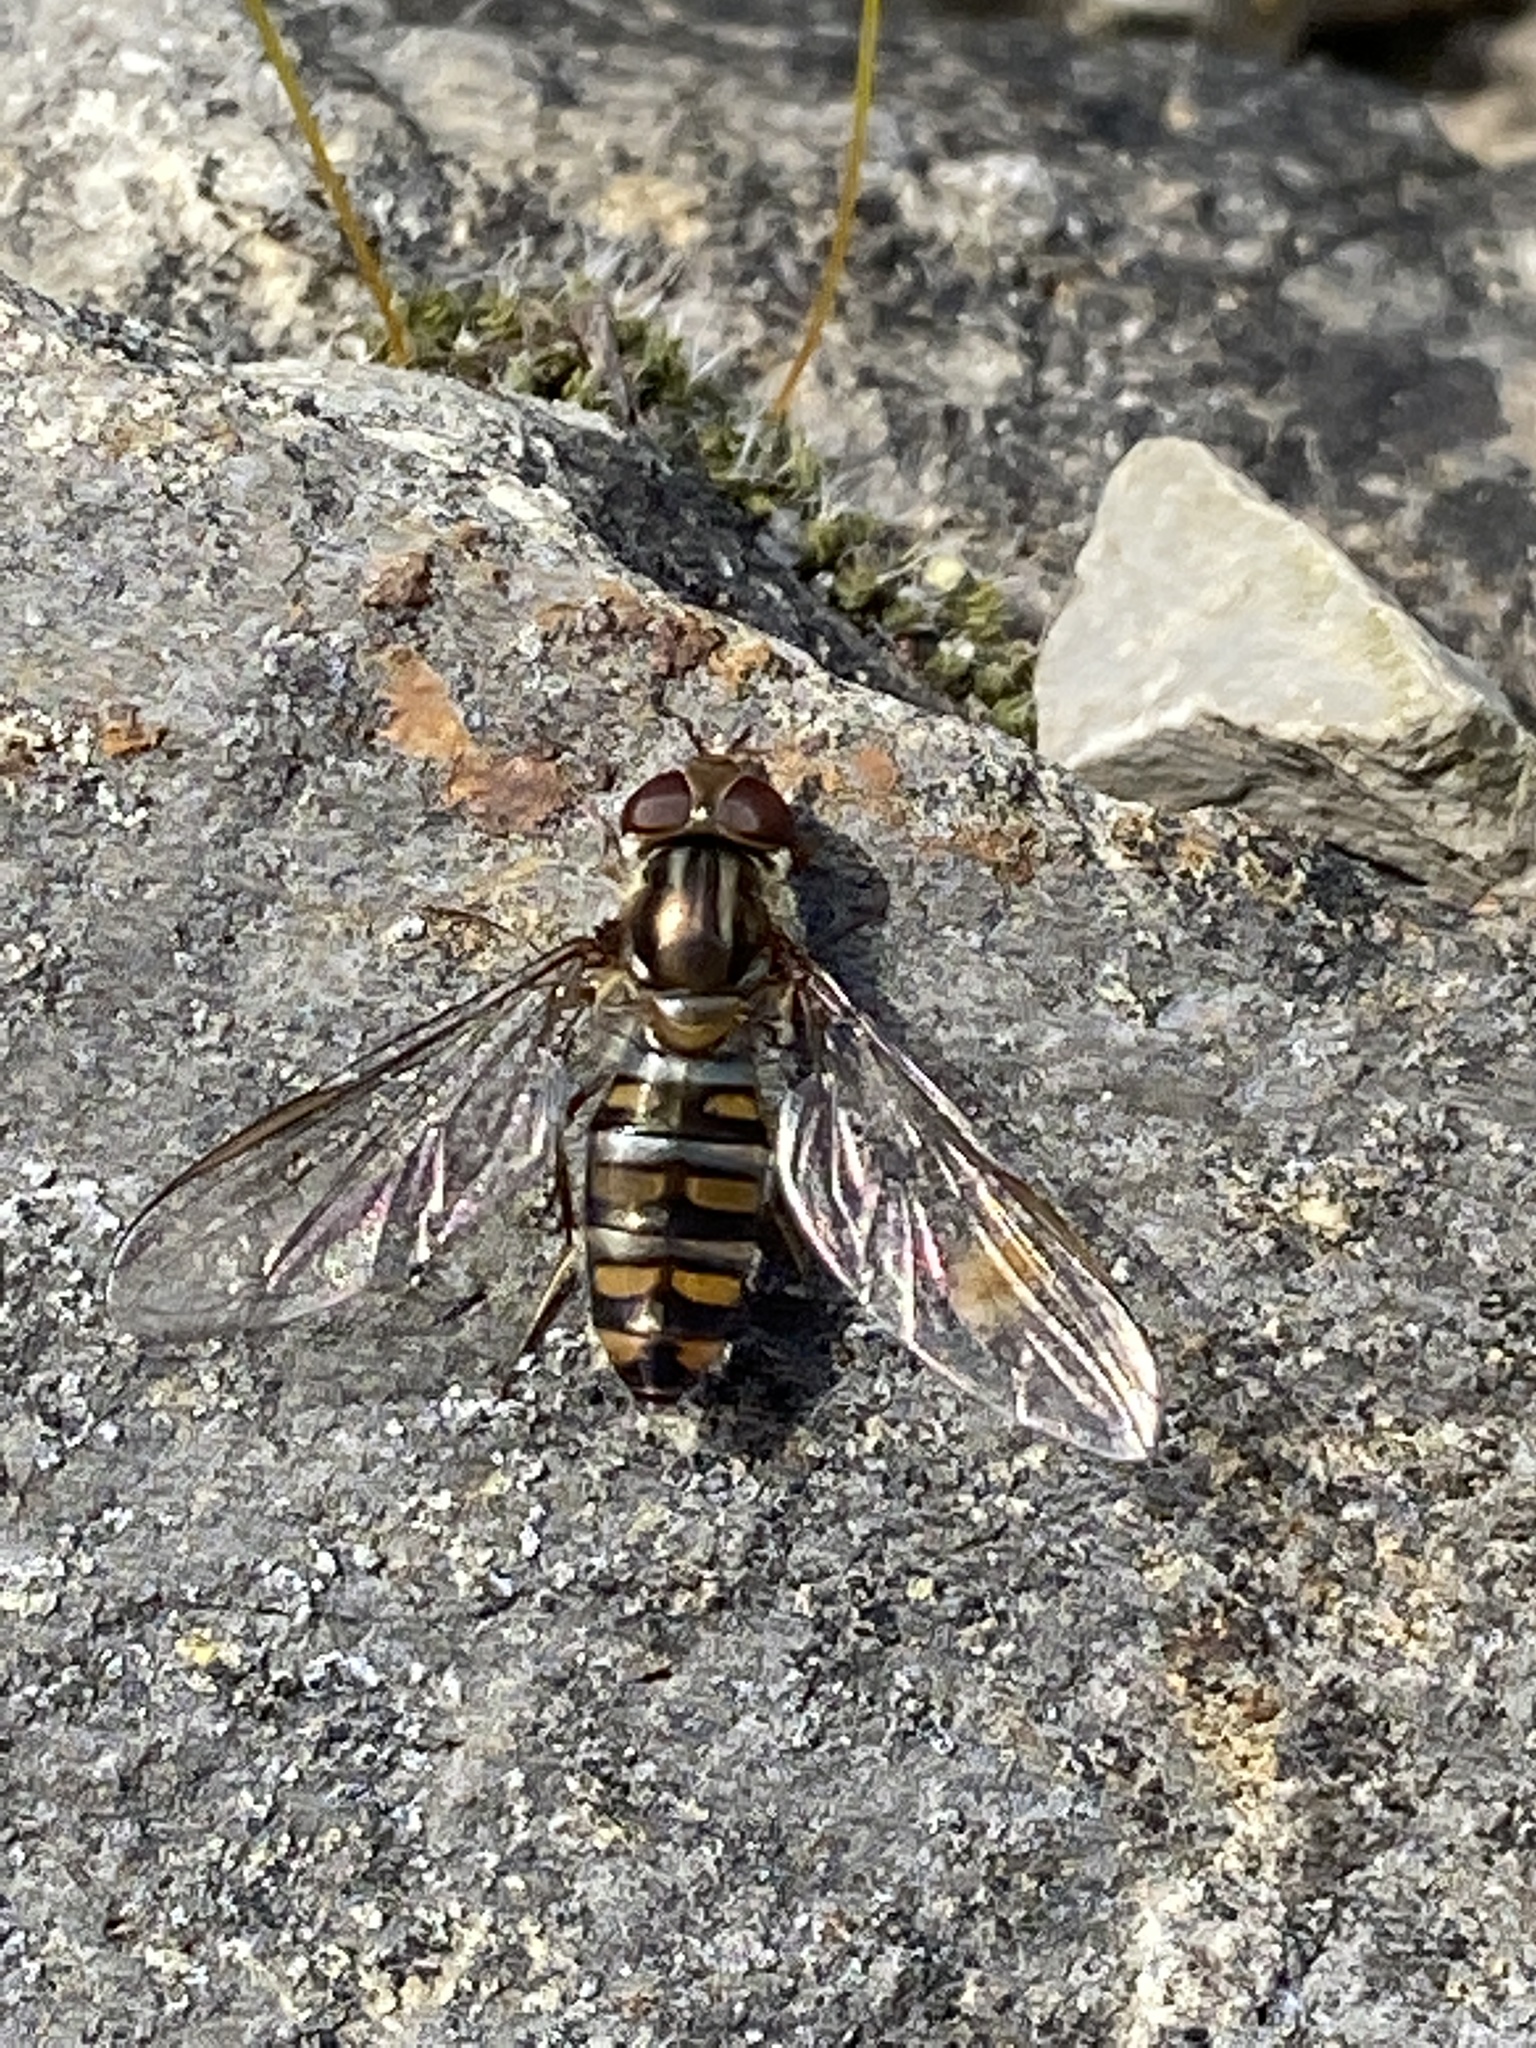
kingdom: Animalia
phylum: Arthropoda
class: Insecta
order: Diptera
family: Syrphidae
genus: Episyrphus
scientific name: Episyrphus balteatus
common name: Marmalade hoverfly
